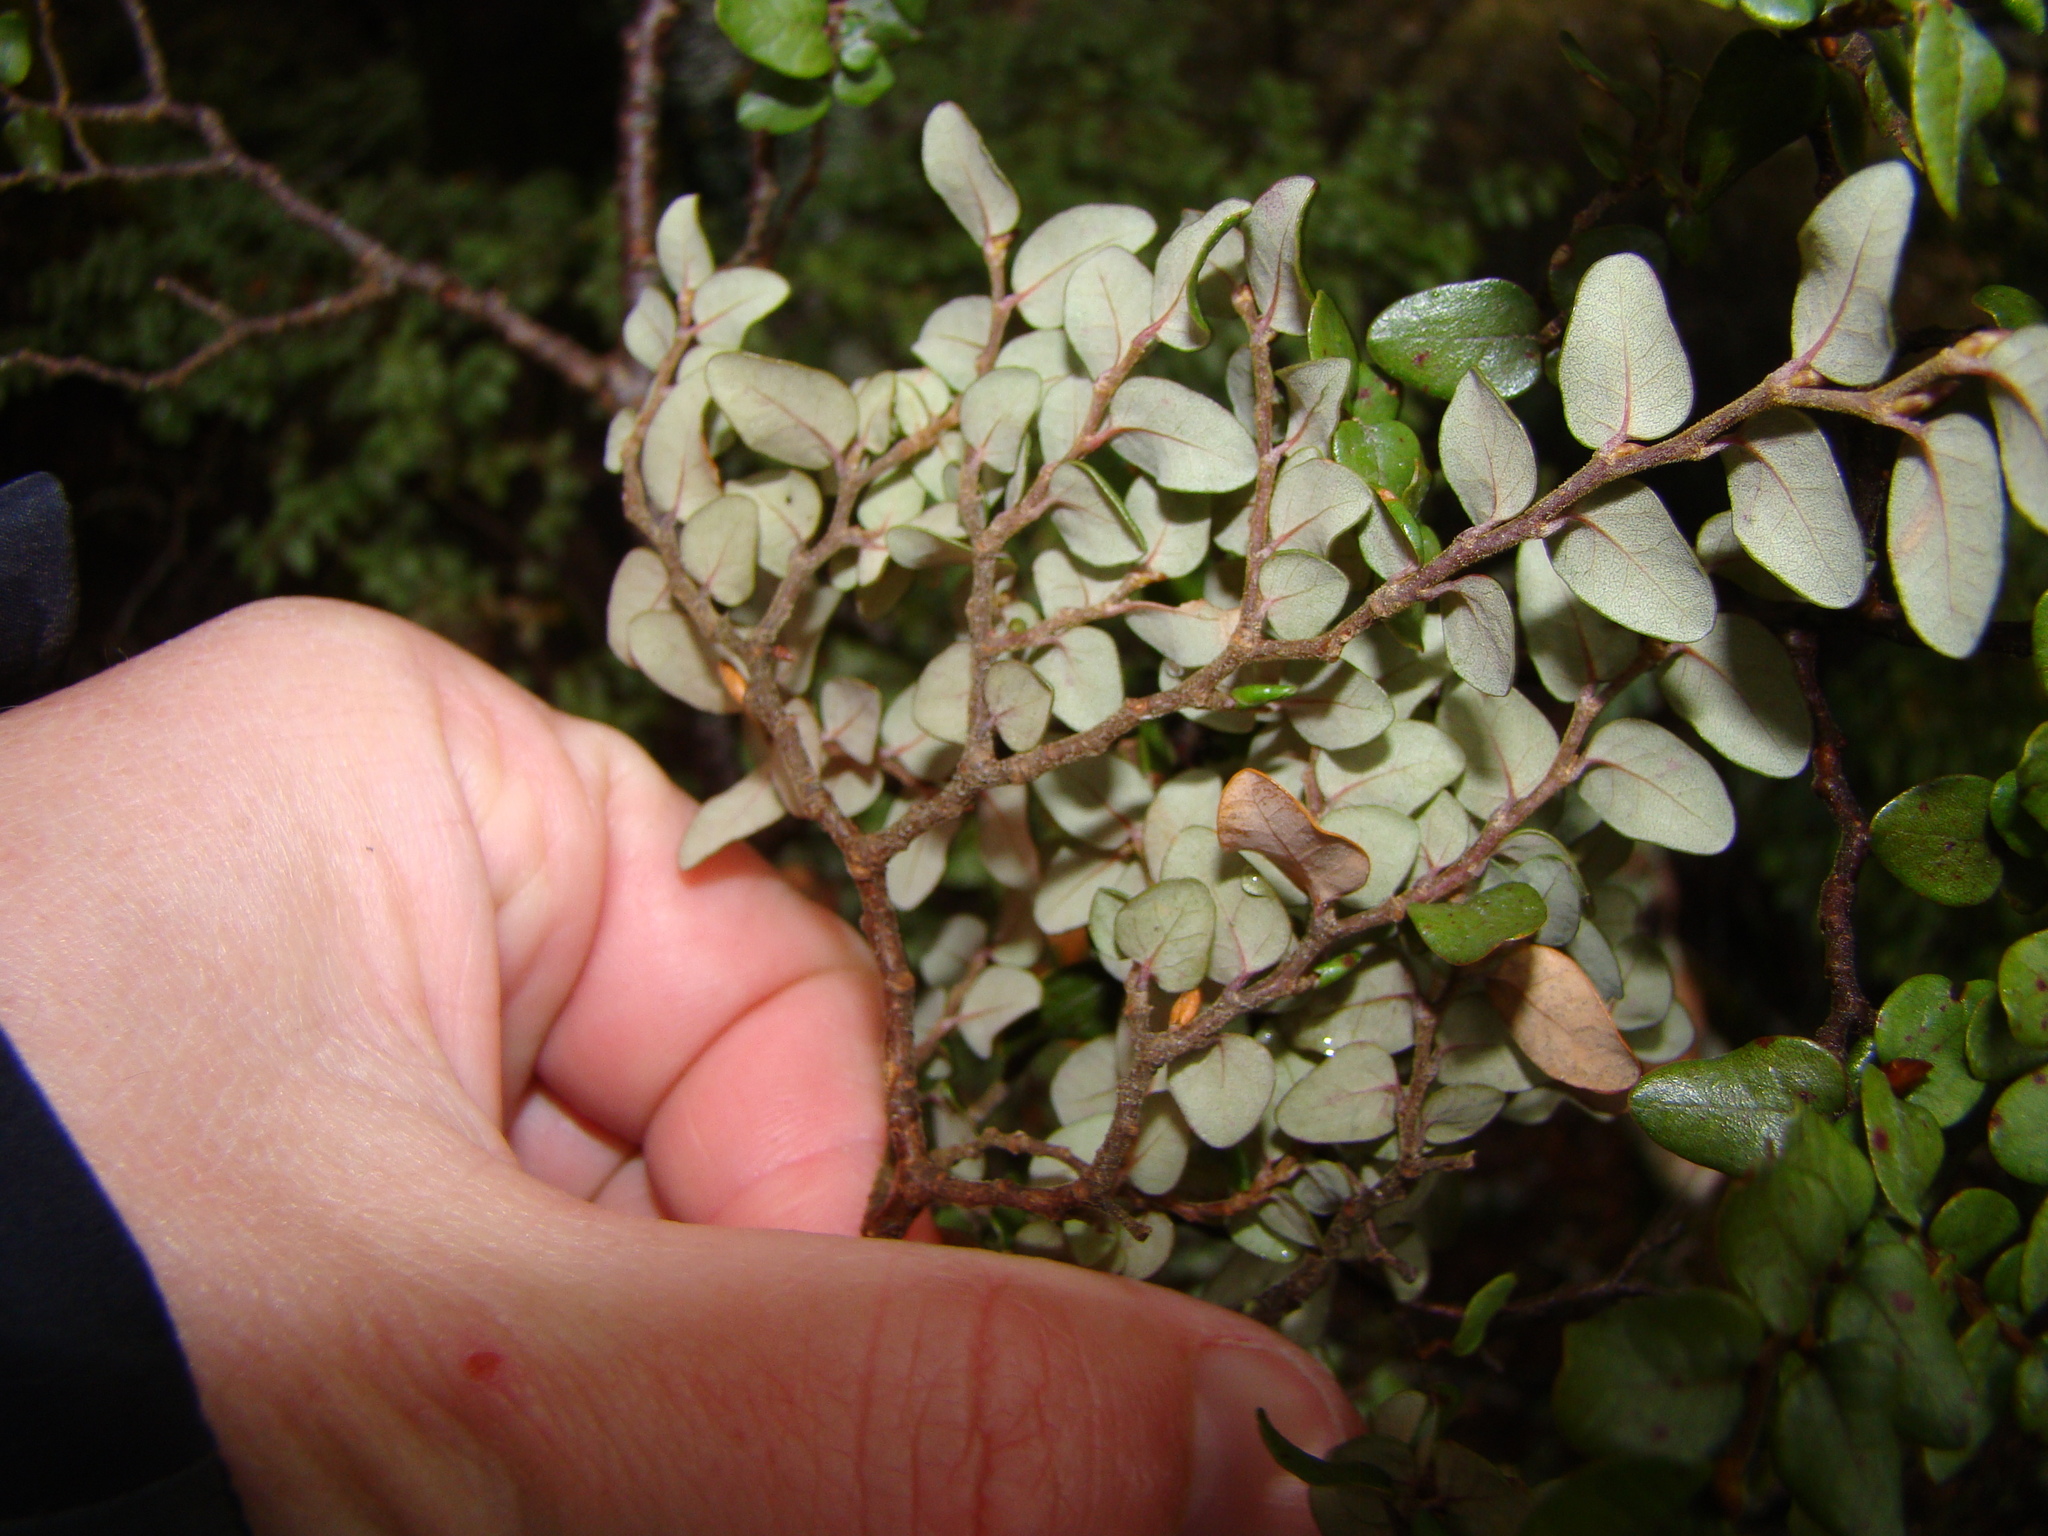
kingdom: Plantae
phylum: Tracheophyta
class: Magnoliopsida
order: Fagales
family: Nothofagaceae
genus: Nothofagus
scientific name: Nothofagus cliffortioides
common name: Mountain beech
